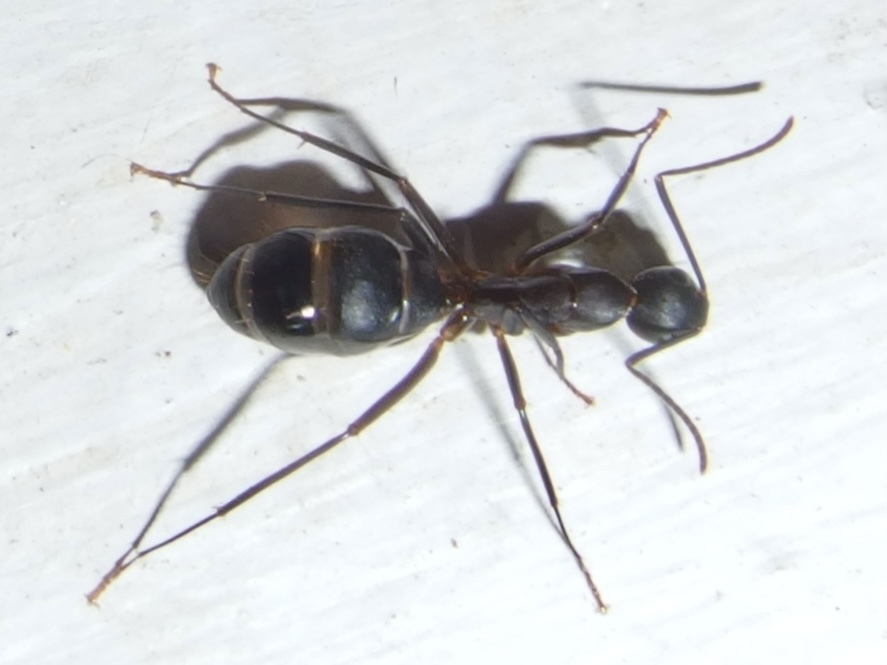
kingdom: Animalia
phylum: Arthropoda
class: Insecta
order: Hymenoptera
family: Formicidae
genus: Camponotus
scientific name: Camponotus
